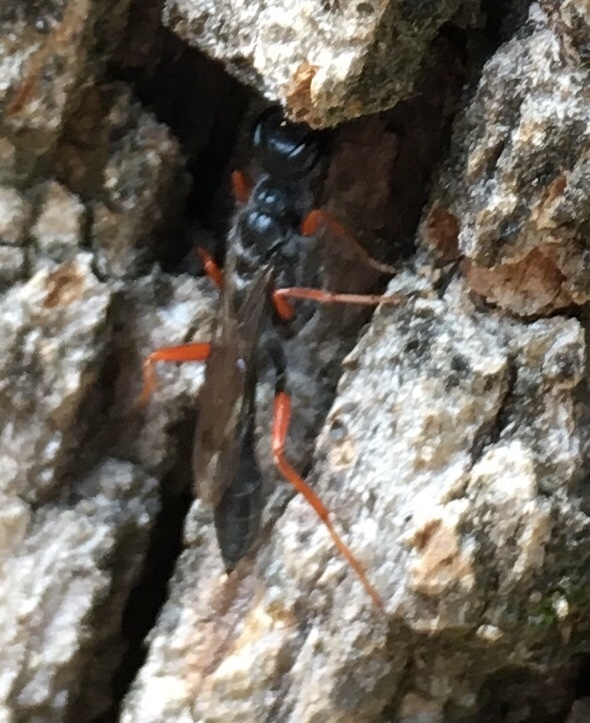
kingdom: Animalia
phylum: Arthropoda
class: Insecta
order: Hymenoptera
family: Sphecidae
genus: Podium
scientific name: Podium rufipes
